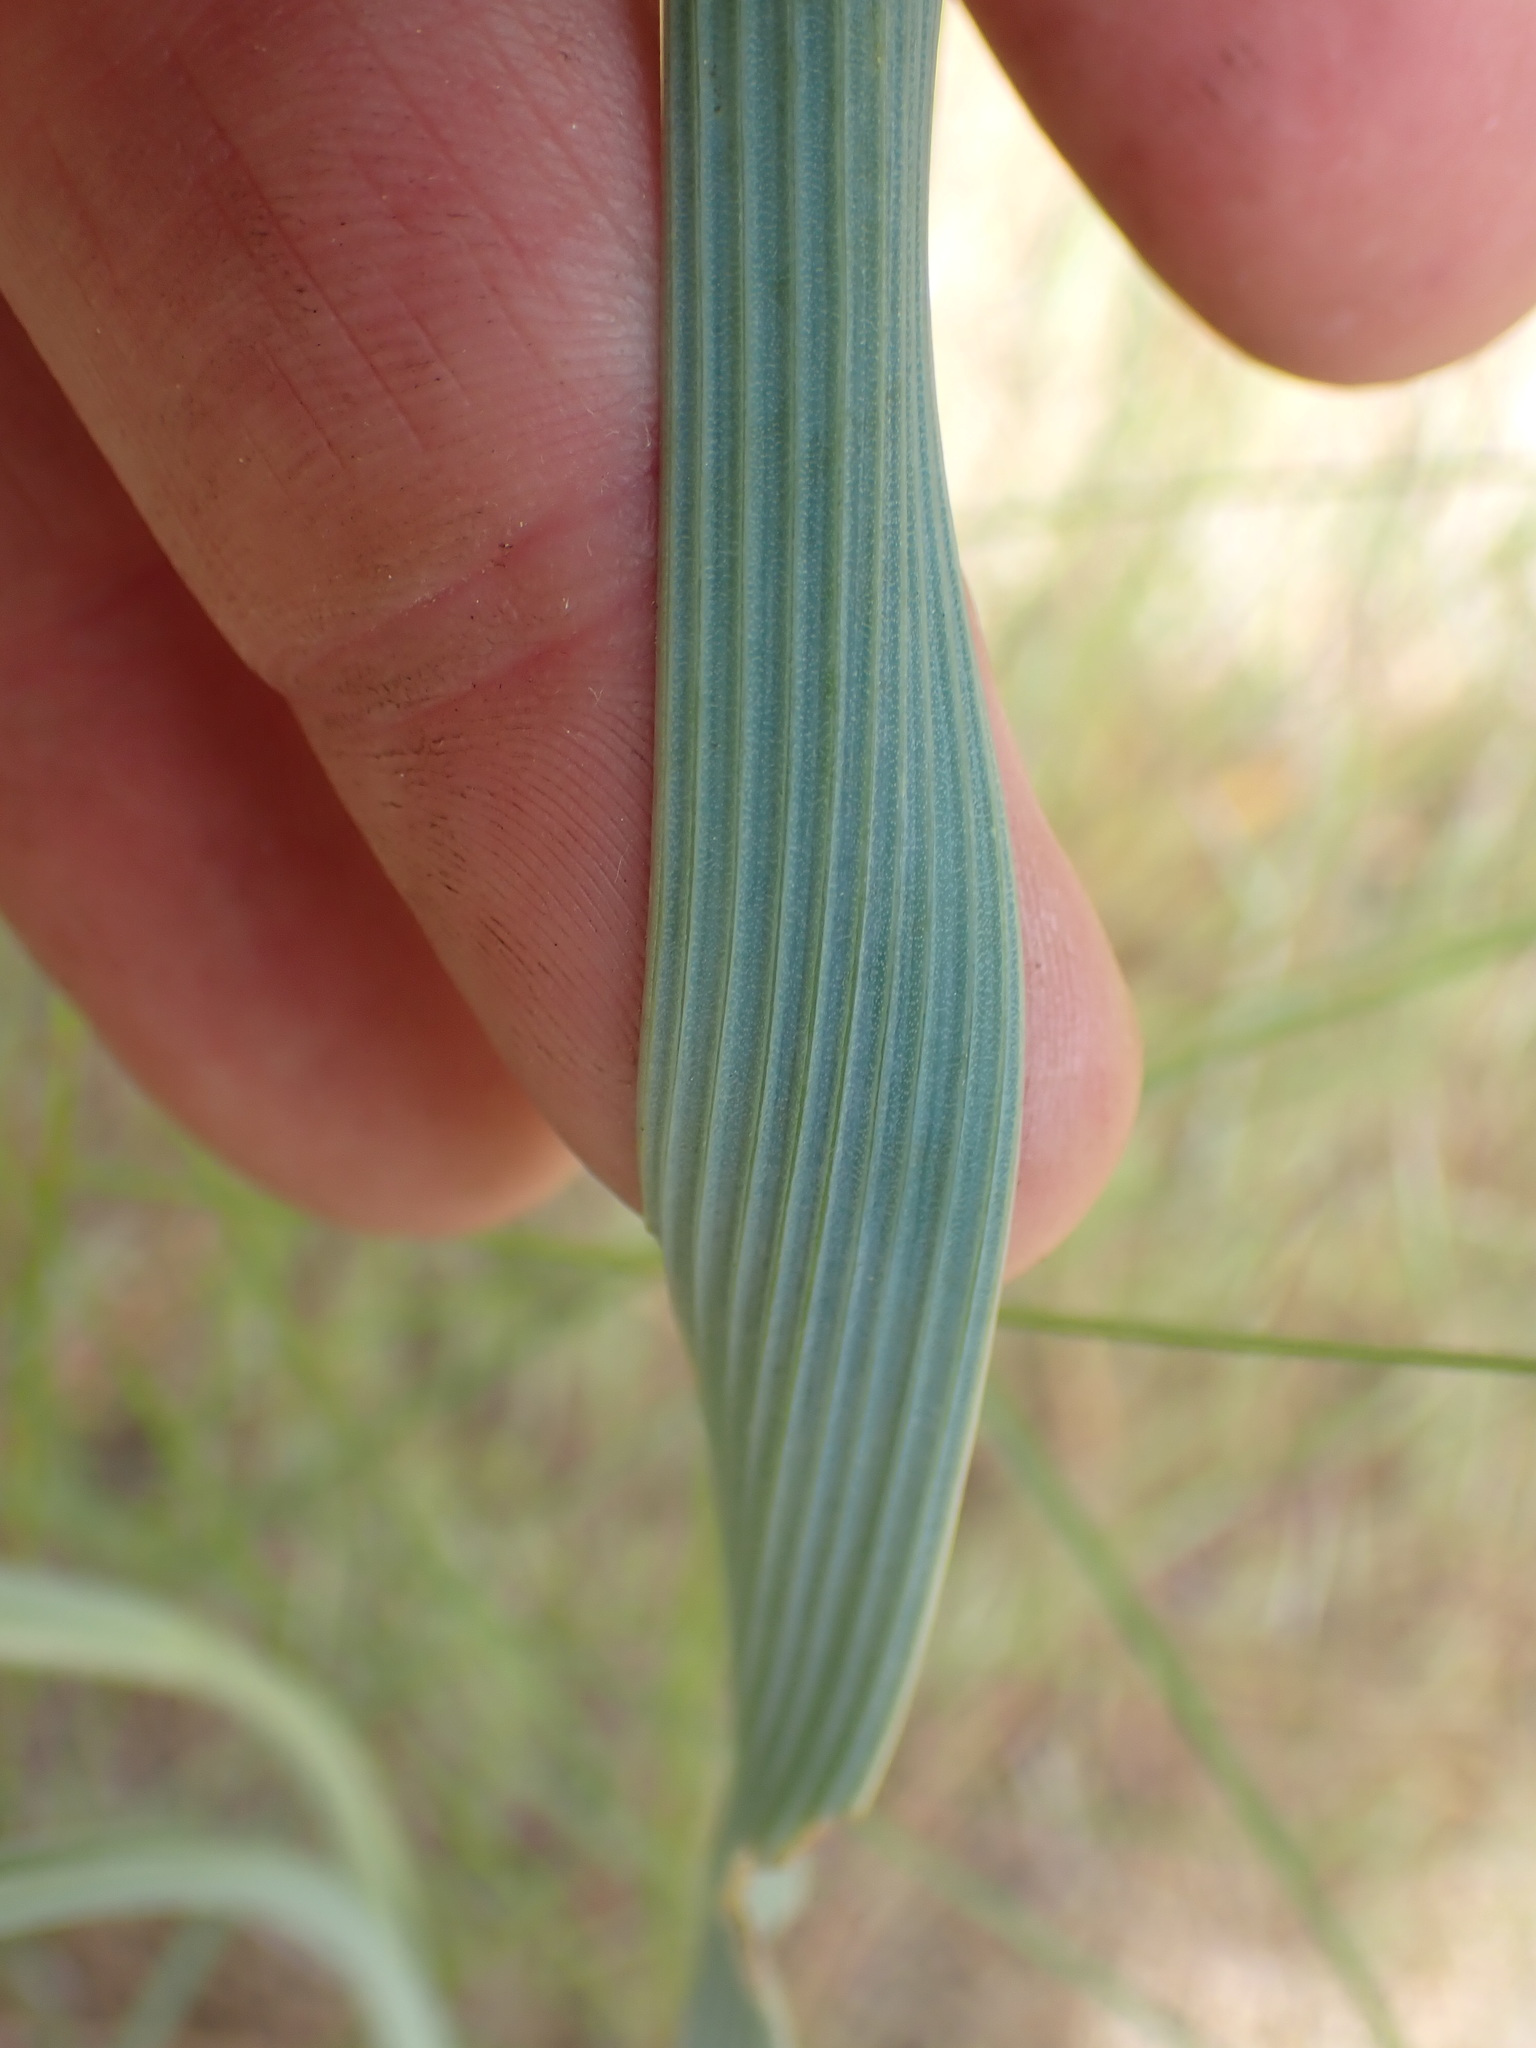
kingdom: Plantae
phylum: Tracheophyta
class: Liliopsida
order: Liliales
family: Liliaceae
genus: Calochortus
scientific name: Calochortus macrocarpus
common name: Green-band mariposa lily
